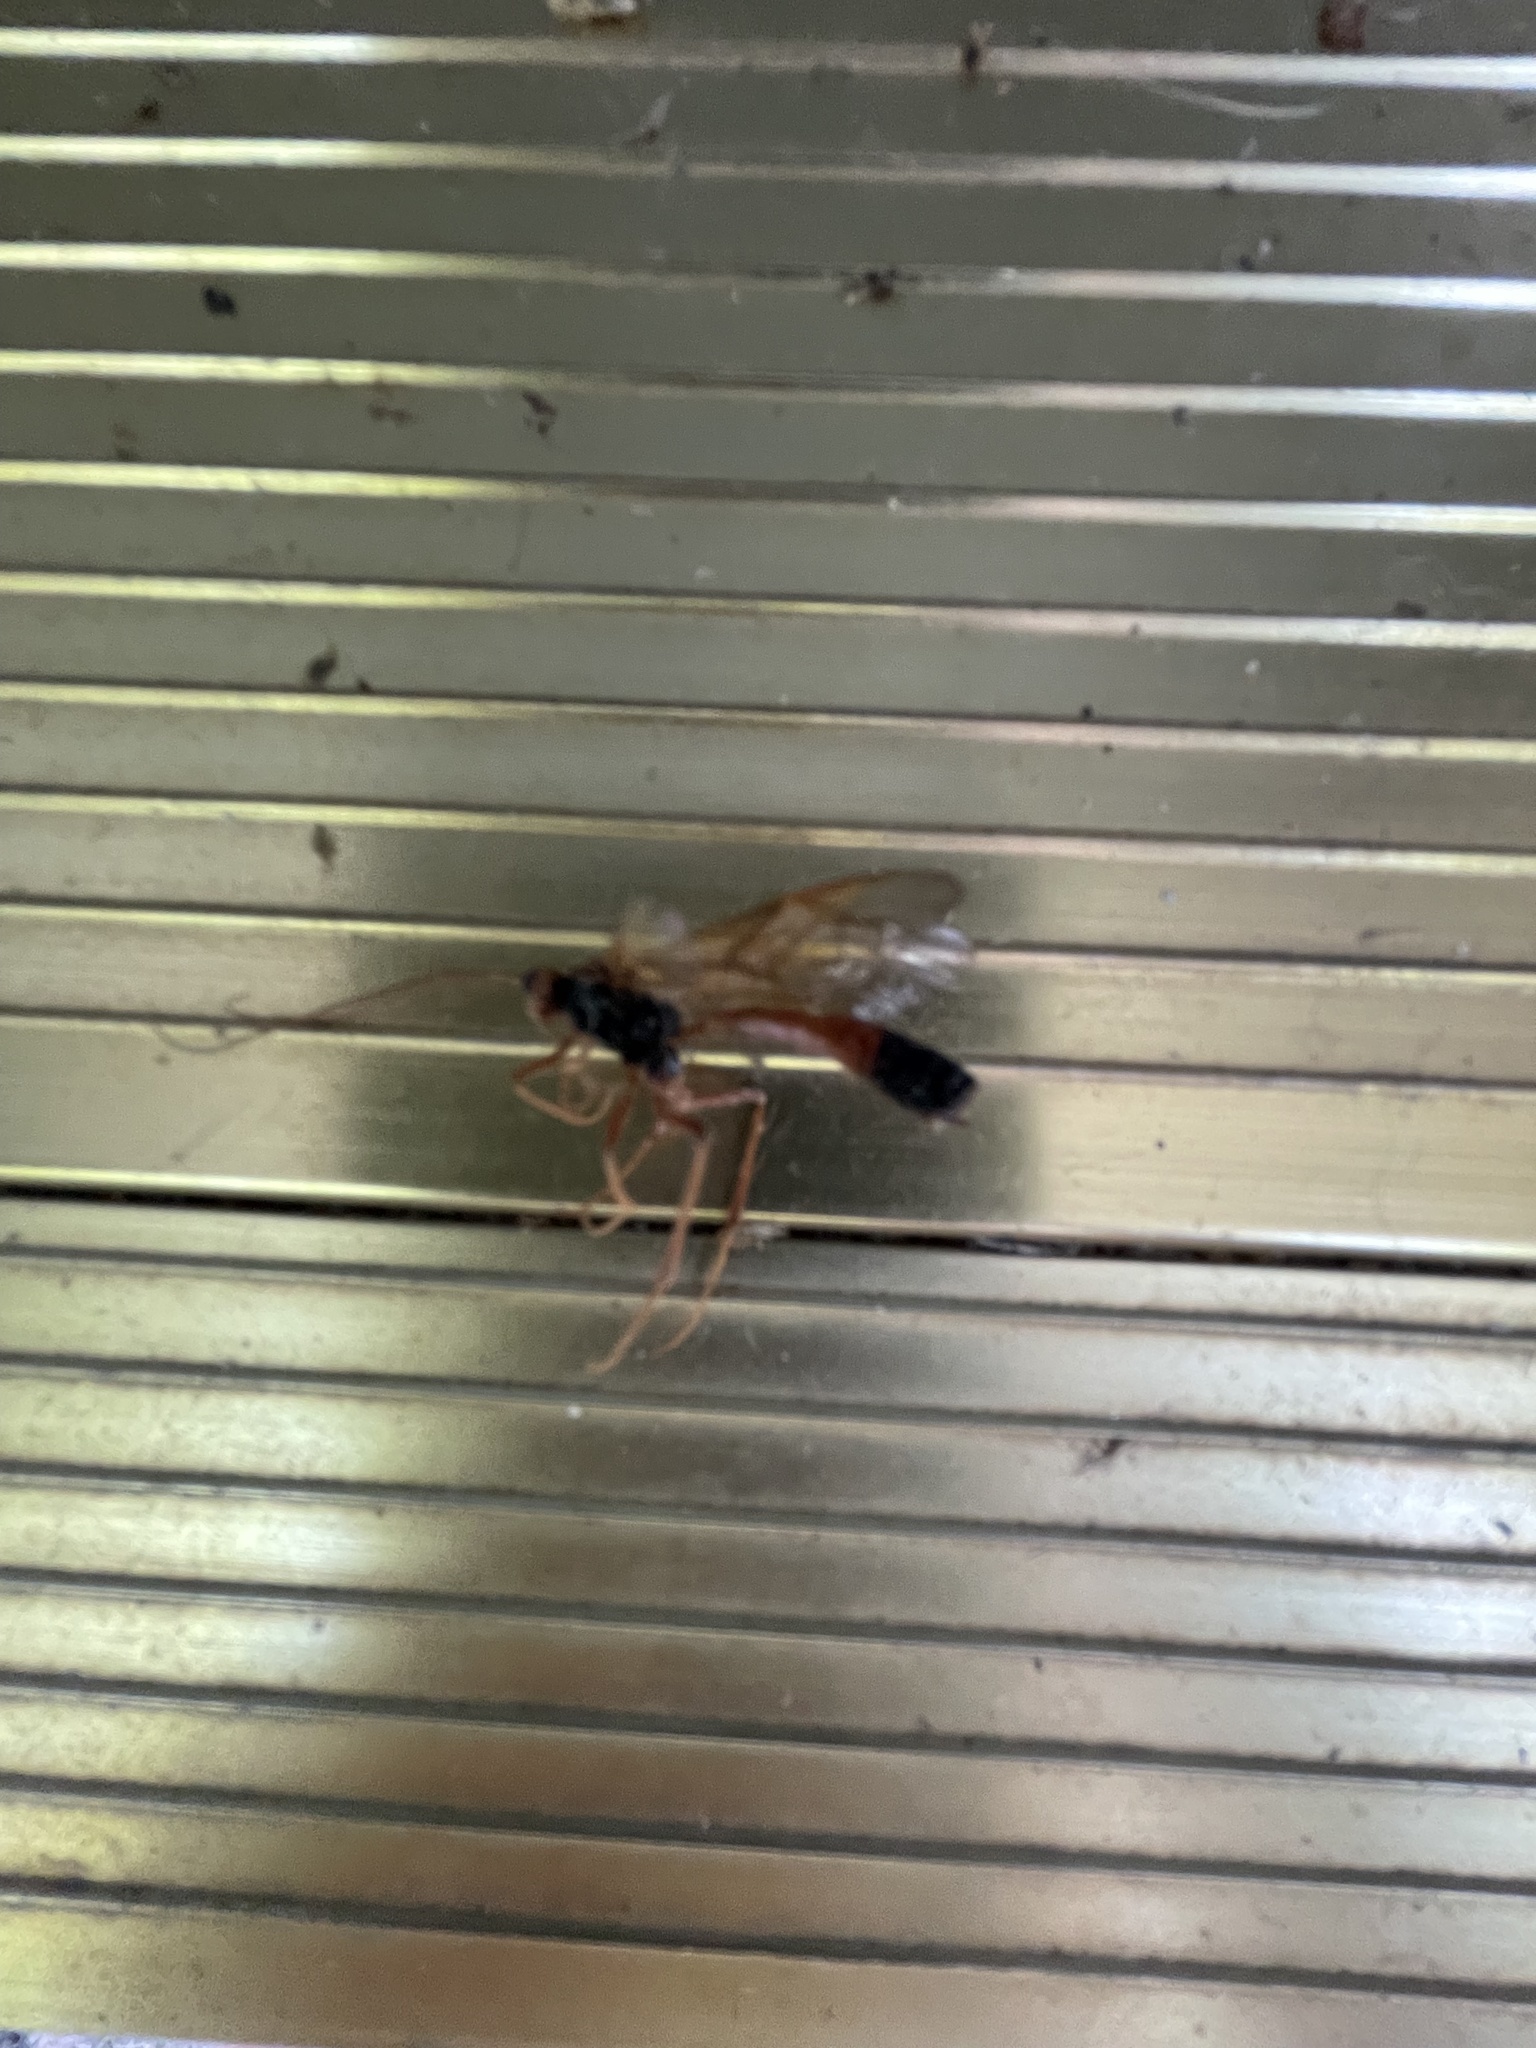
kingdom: Animalia
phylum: Arthropoda
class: Insecta
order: Hymenoptera
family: Ichneumonidae
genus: Opheltes
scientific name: Opheltes glaucopterus
